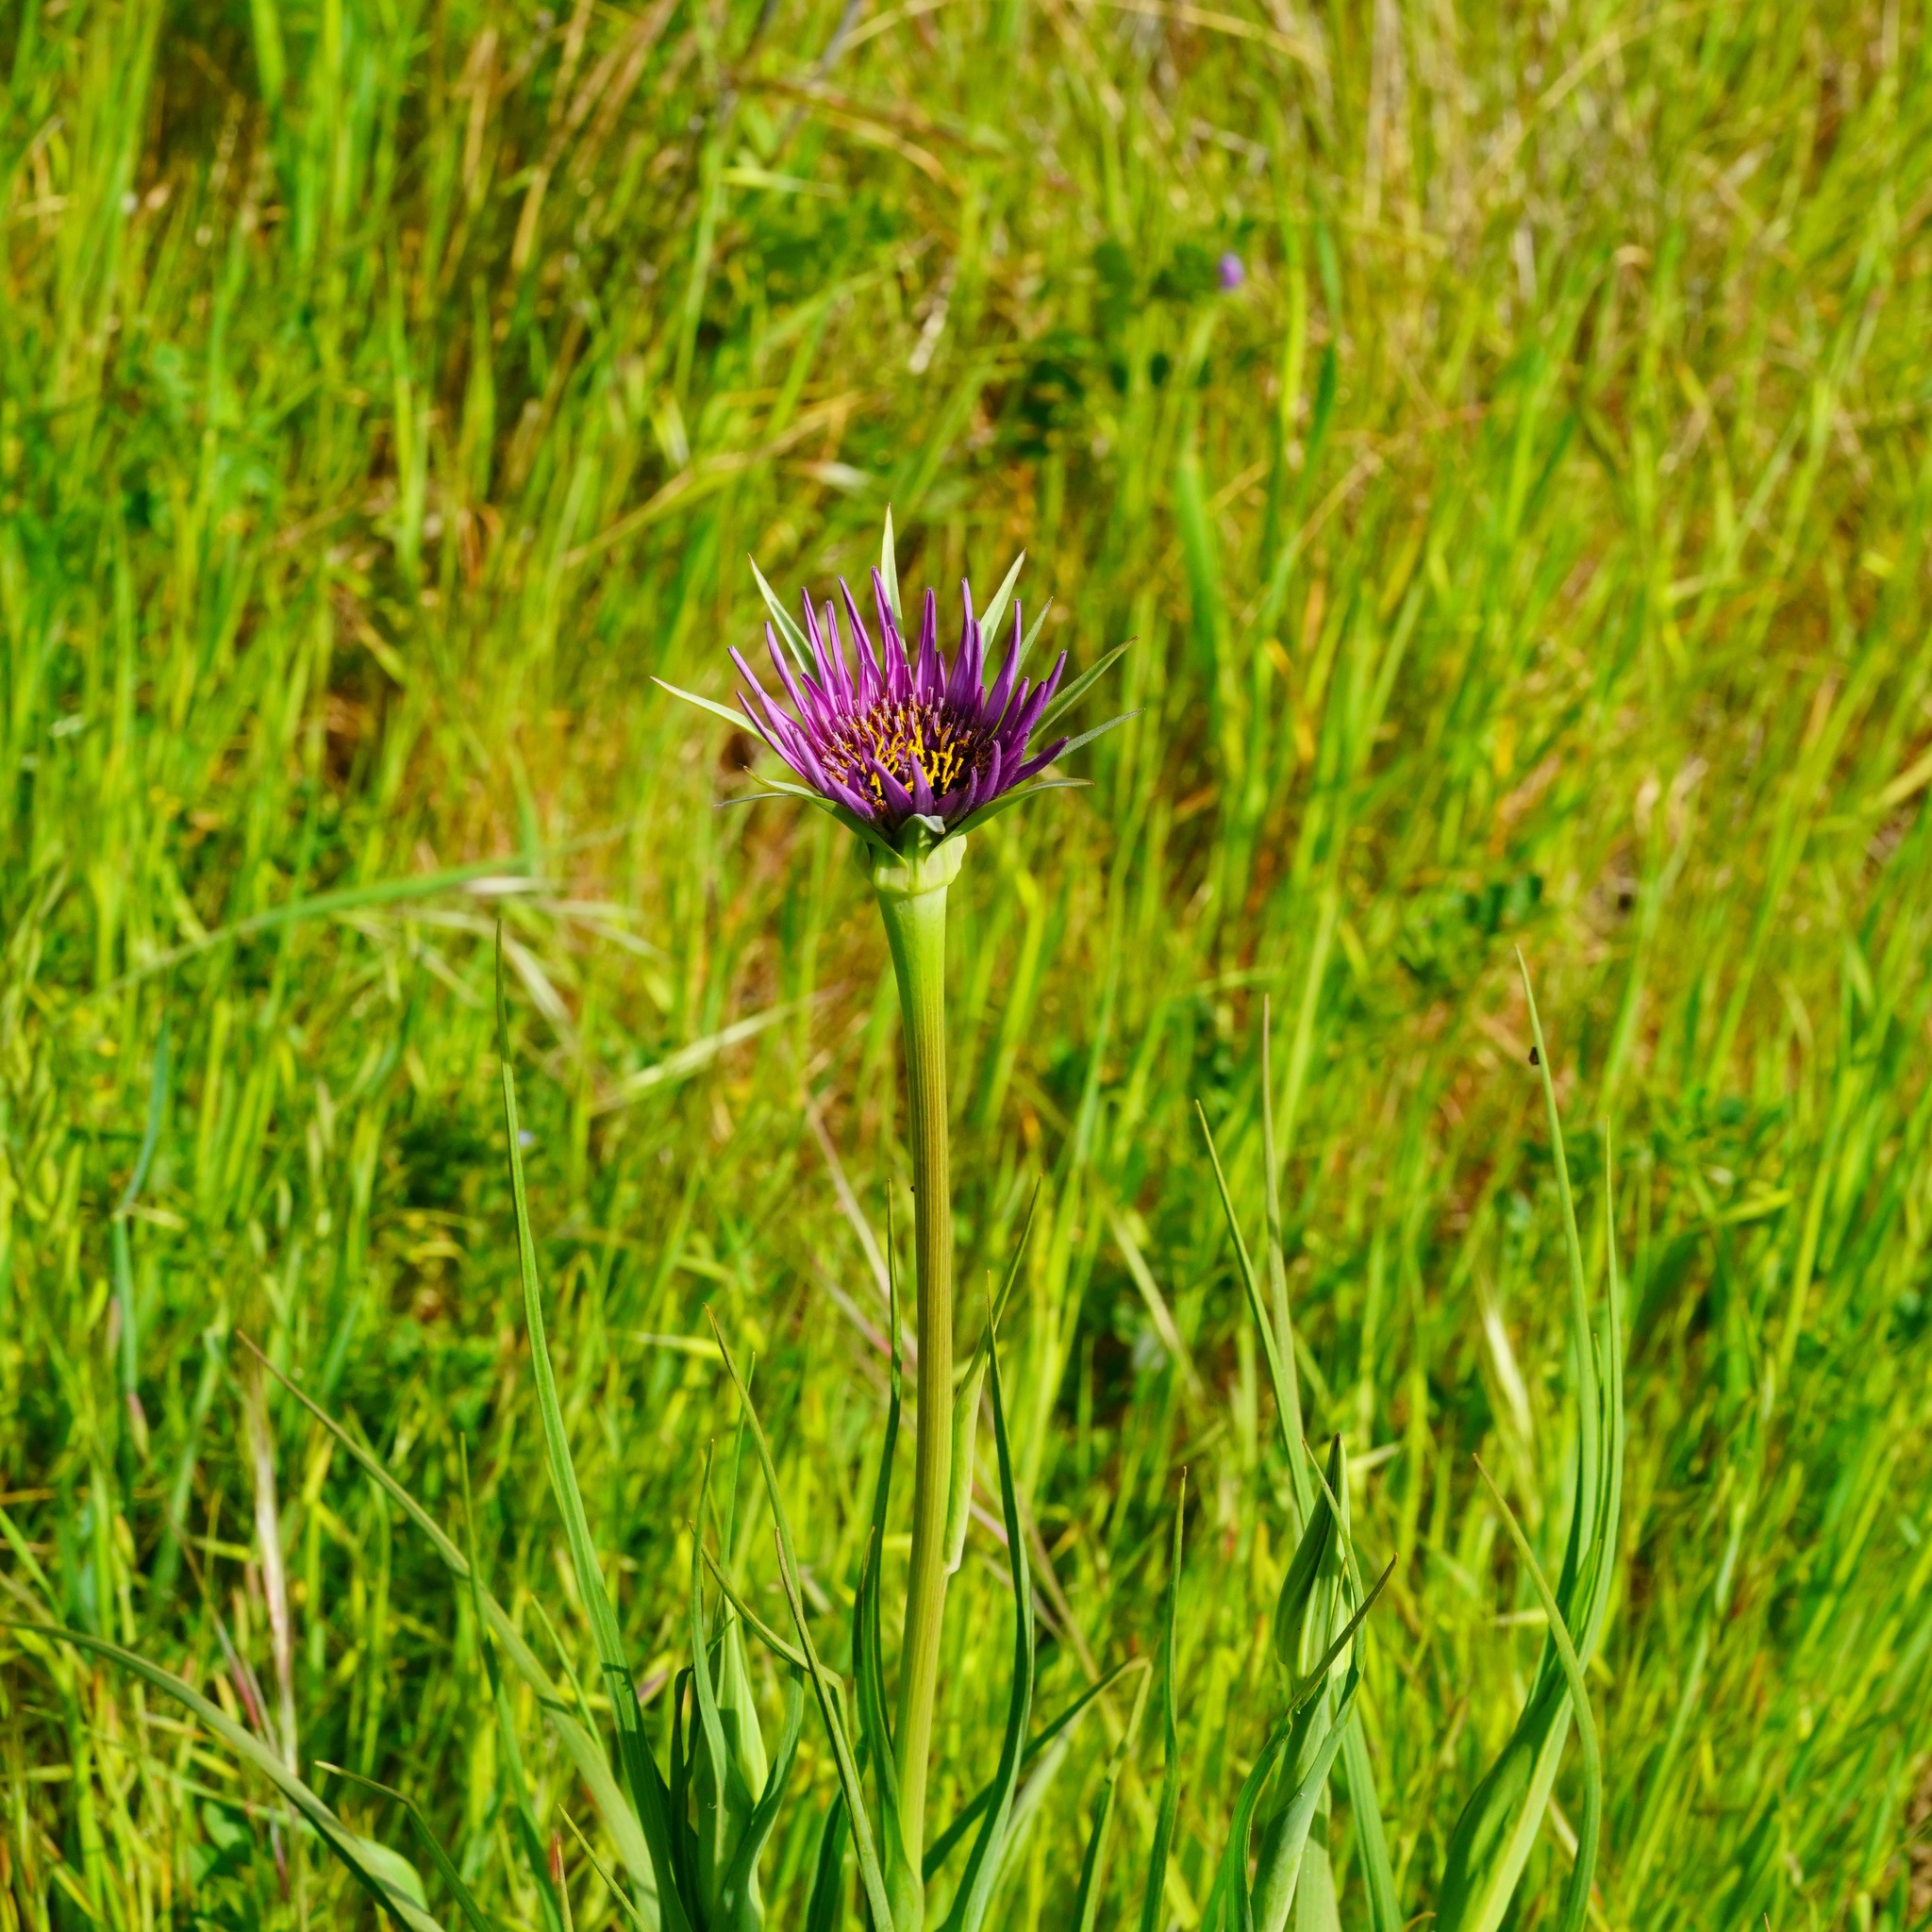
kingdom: Plantae
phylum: Tracheophyta
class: Magnoliopsida
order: Asterales
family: Asteraceae
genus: Tragopogon
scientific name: Tragopogon porrifolius
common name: Salsify
